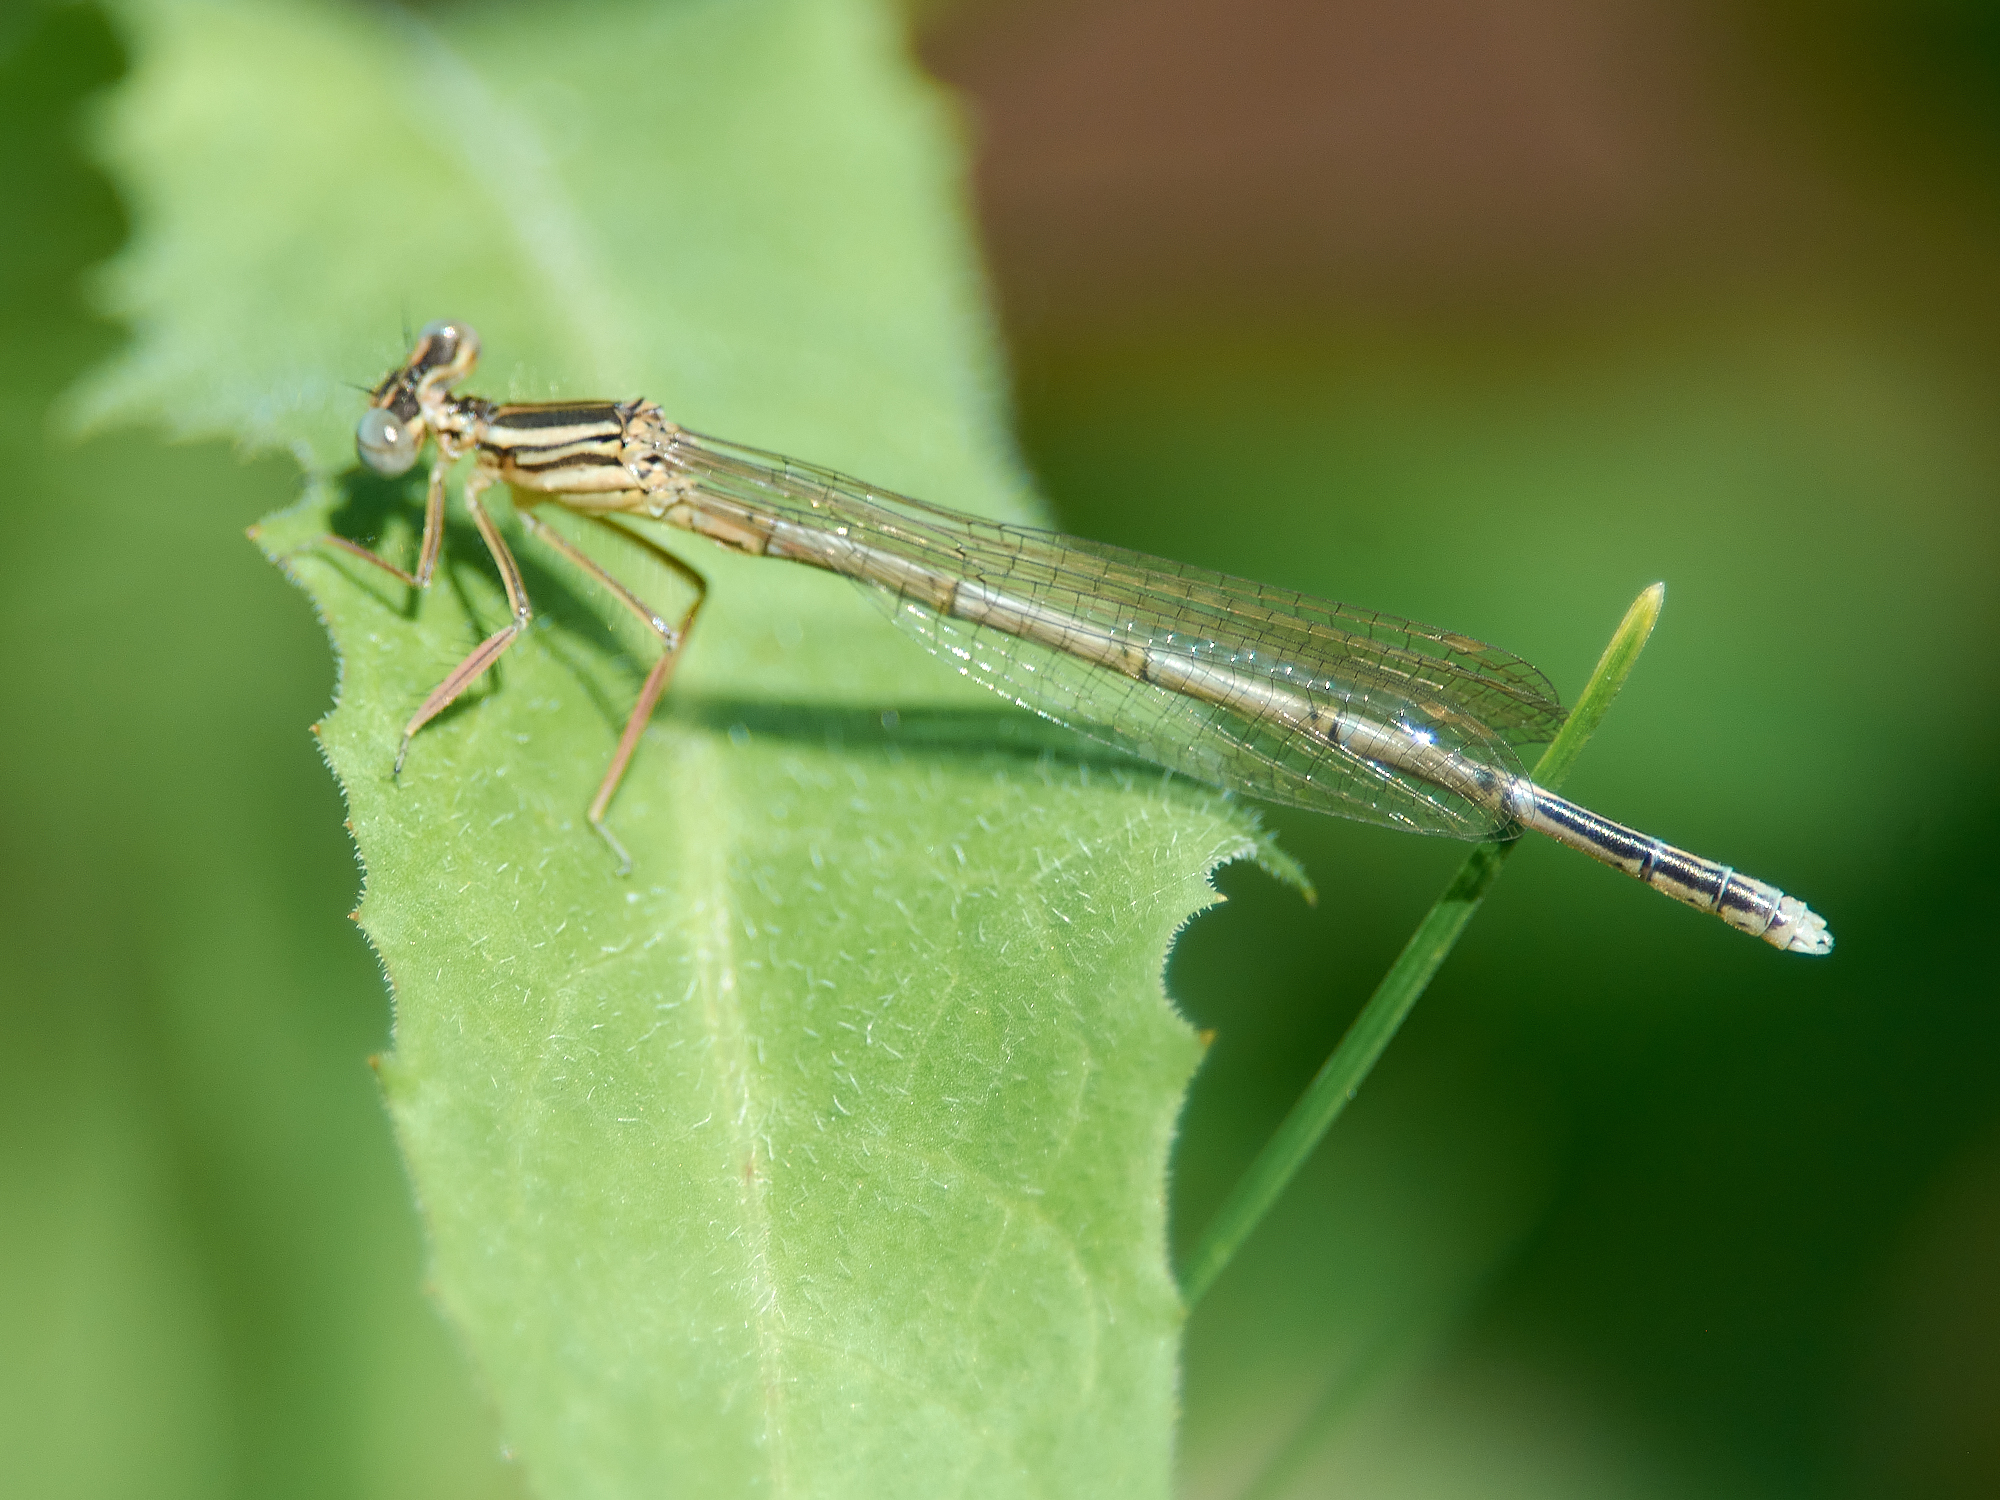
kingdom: Animalia
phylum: Arthropoda
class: Insecta
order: Odonata
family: Platycnemididae
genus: Platycnemis
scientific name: Platycnemis pennipes
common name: White-legged damselfly
